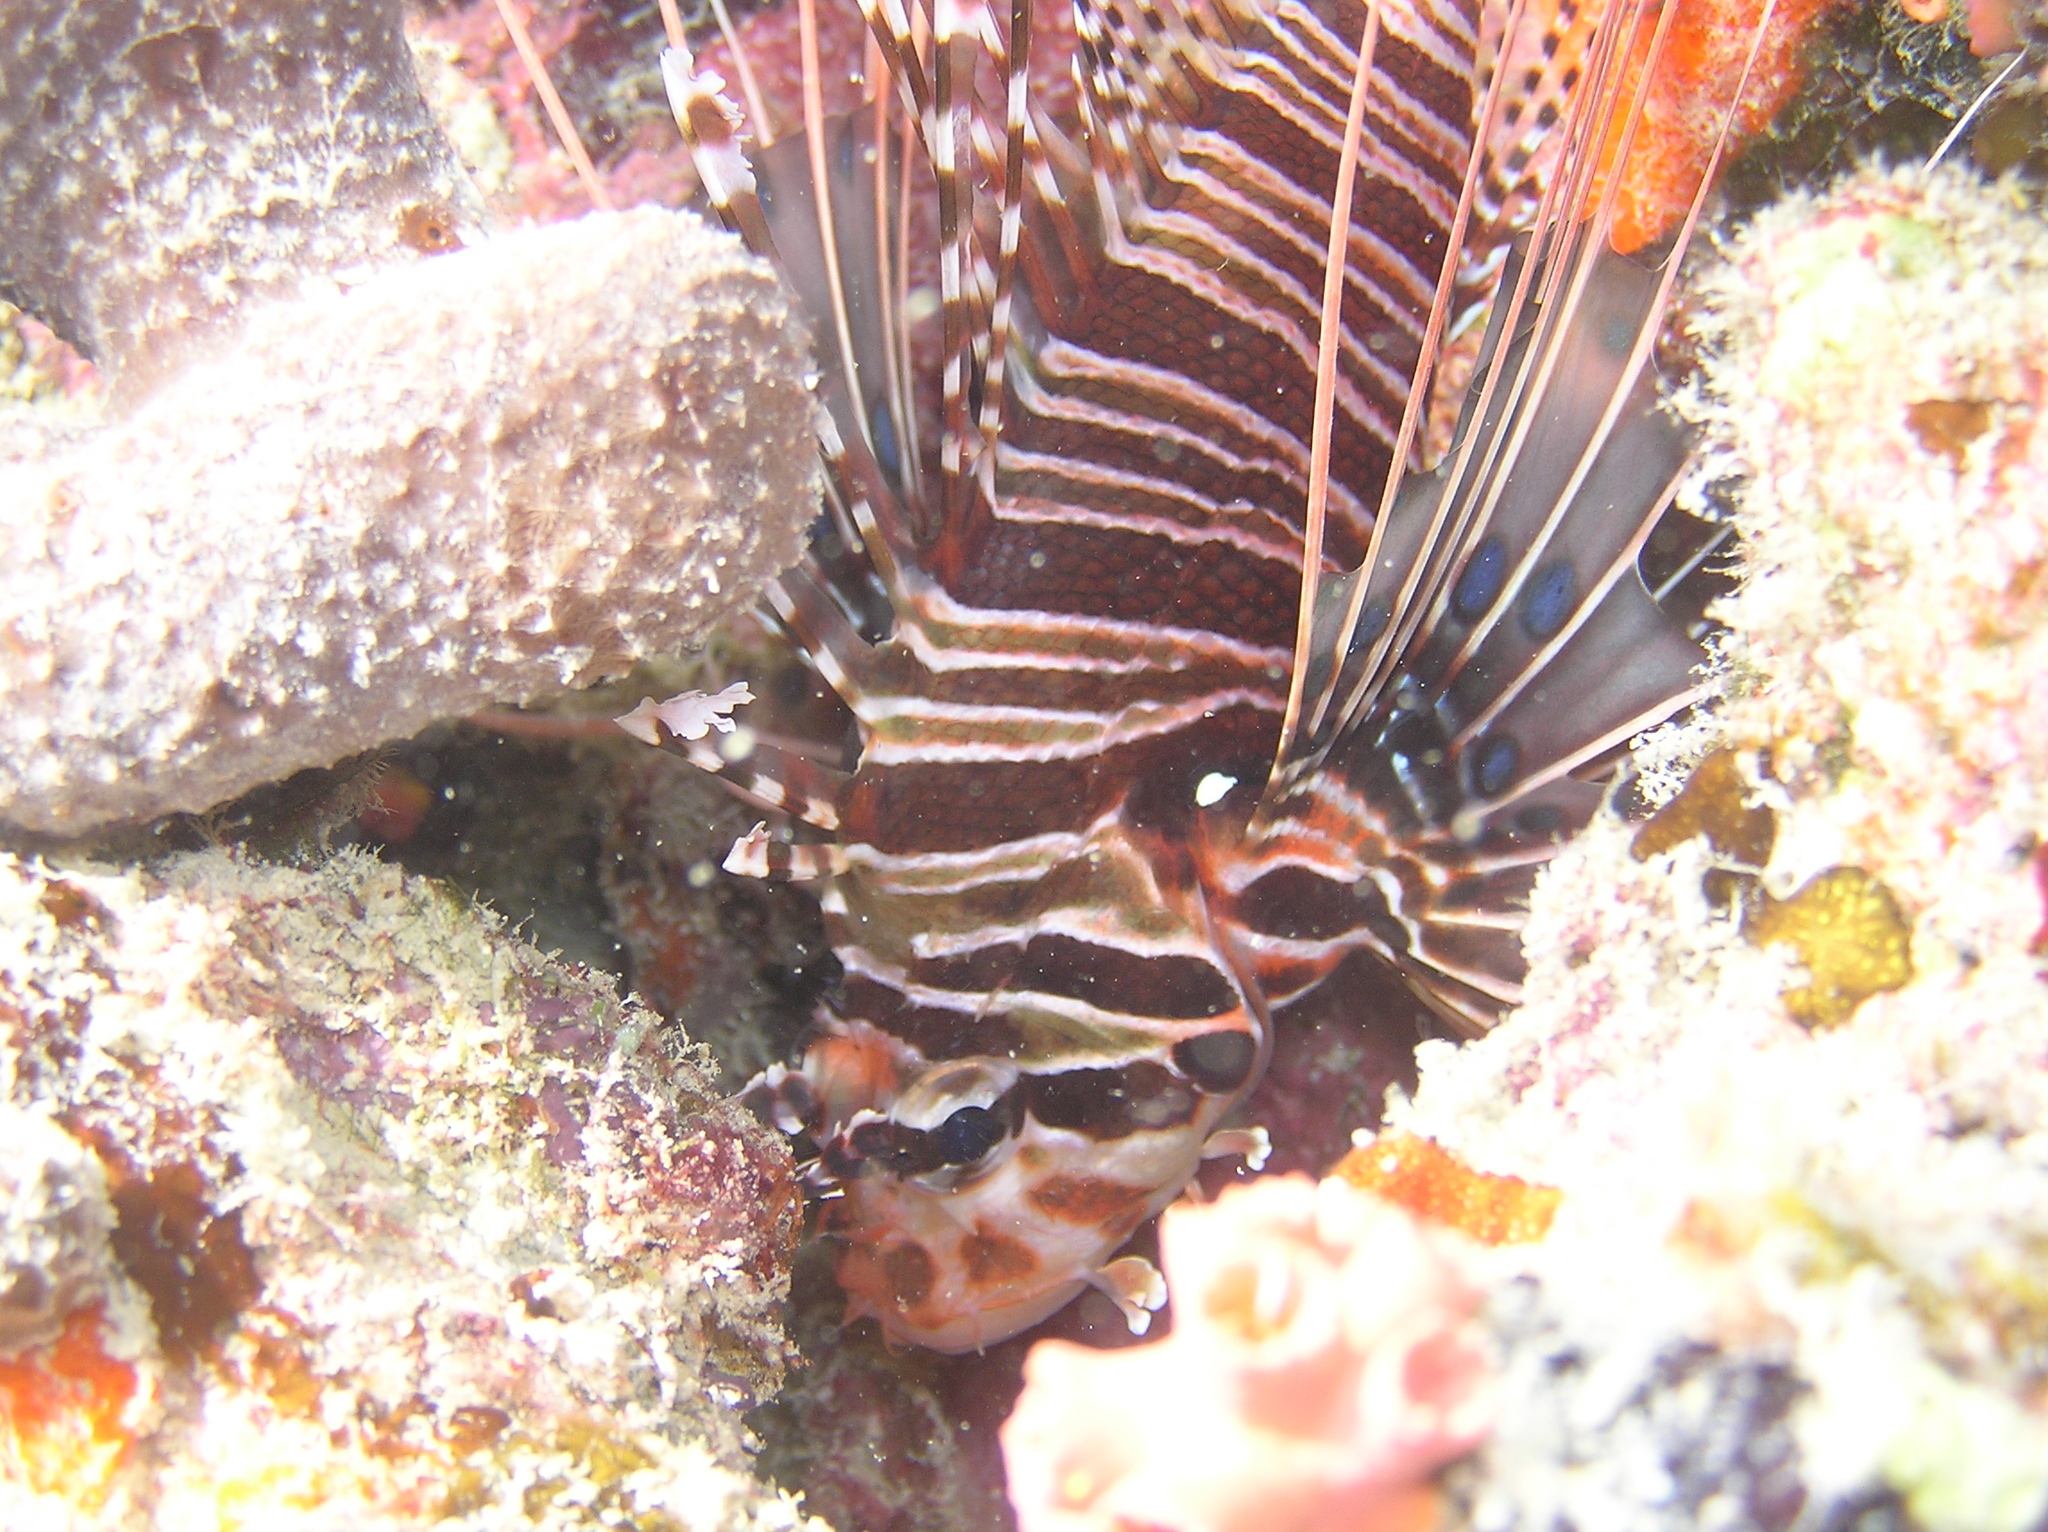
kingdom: Animalia
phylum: Chordata
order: Scorpaeniformes
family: Scorpaenidae
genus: Pterois
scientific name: Pterois antennata
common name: Spotfin lionfish
